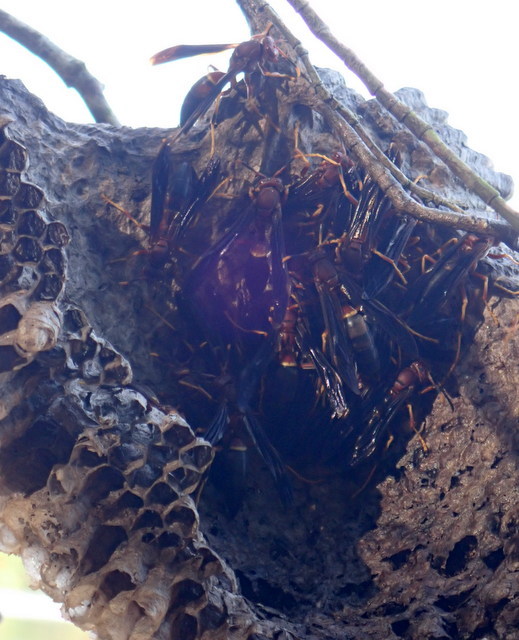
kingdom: Animalia
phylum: Arthropoda
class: Insecta
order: Hymenoptera
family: Eumenidae
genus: Polistes
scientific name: Polistes annularis
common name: Ringed paper wasp
